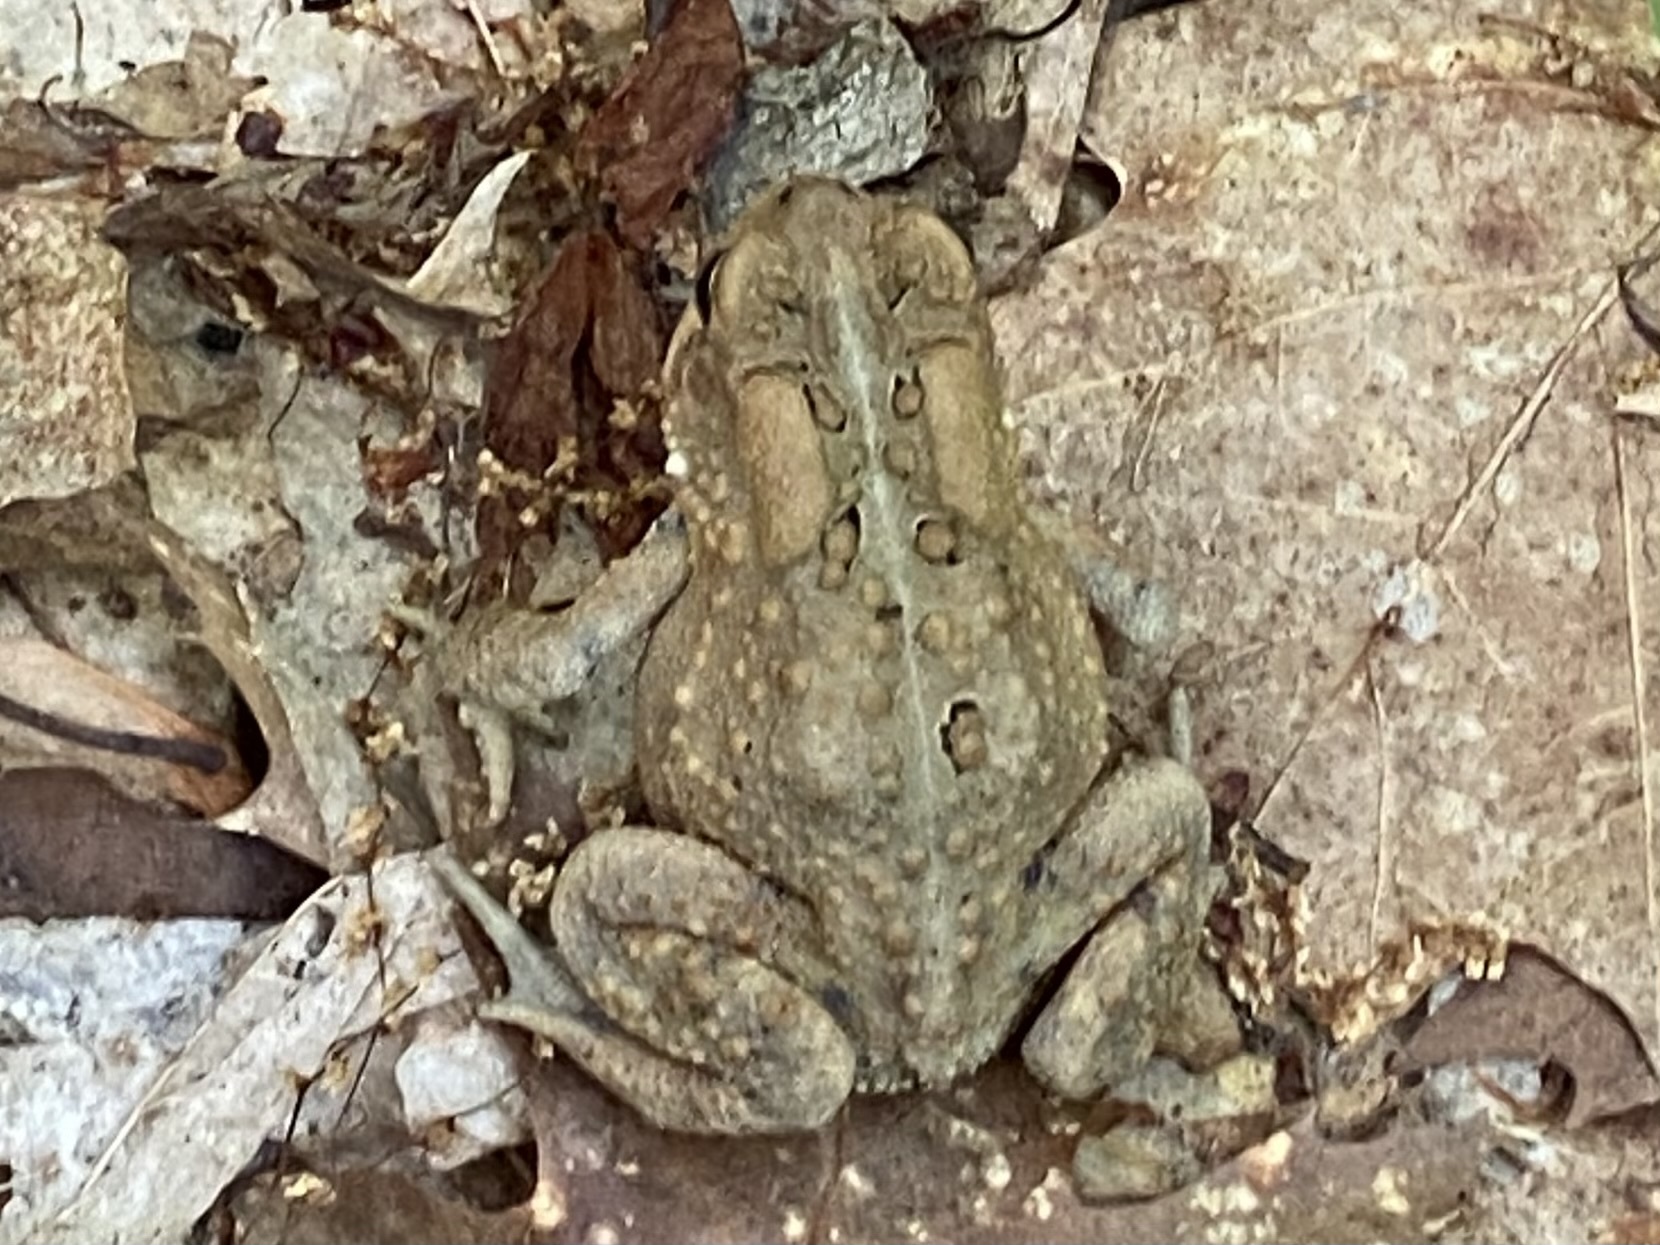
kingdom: Animalia
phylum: Chordata
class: Amphibia
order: Anura
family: Bufonidae
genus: Anaxyrus
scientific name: Anaxyrus americanus
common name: American toad
